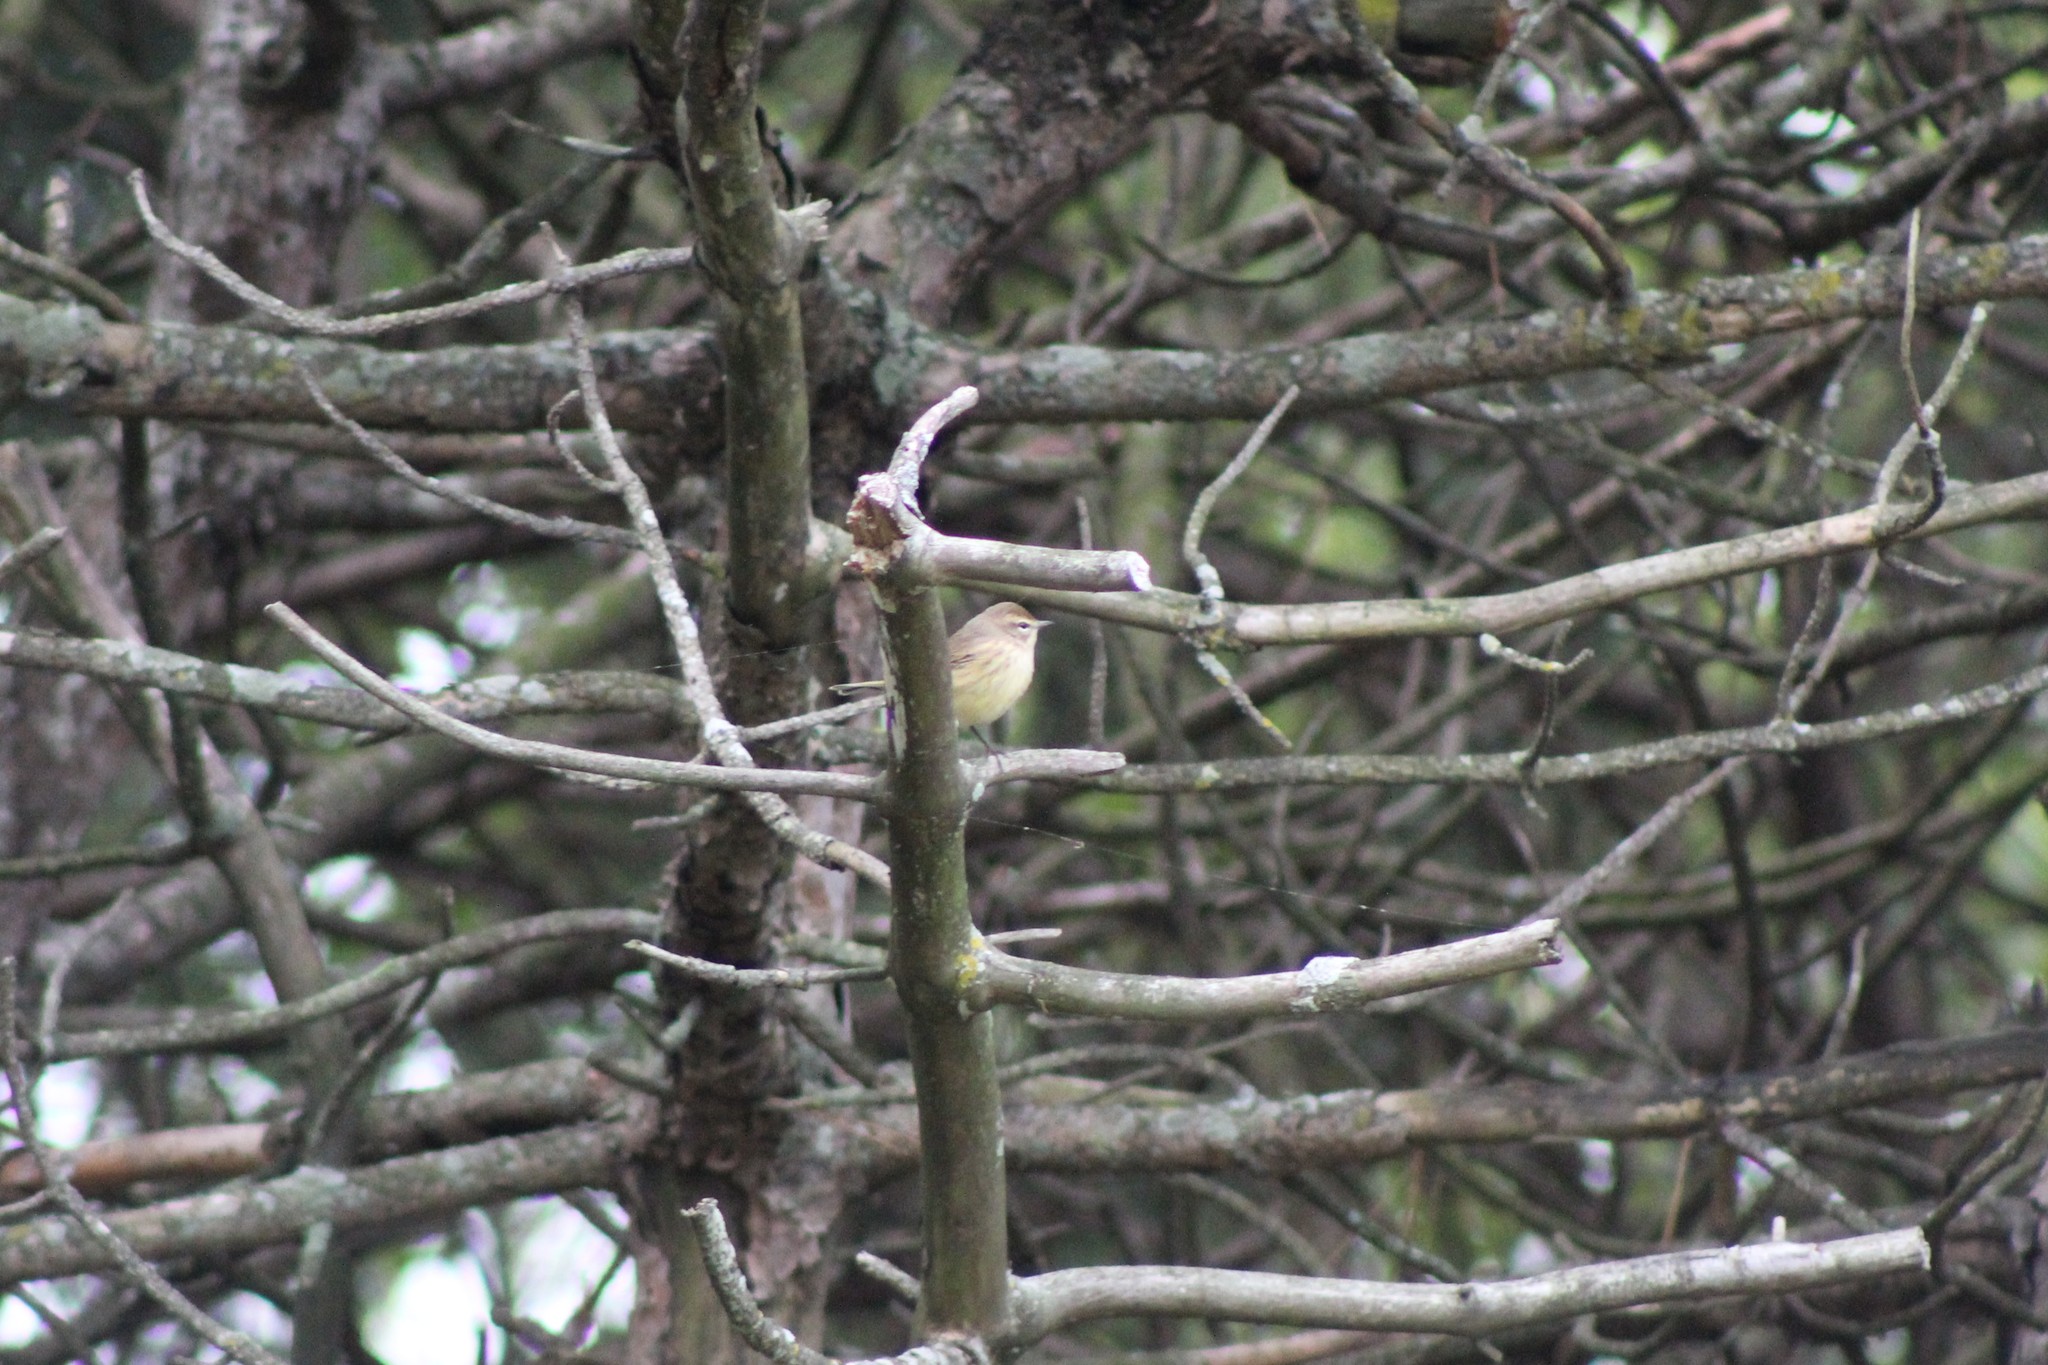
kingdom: Animalia
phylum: Chordata
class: Aves
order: Passeriformes
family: Parulidae
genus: Setophaga
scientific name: Setophaga palmarum
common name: Palm warbler
